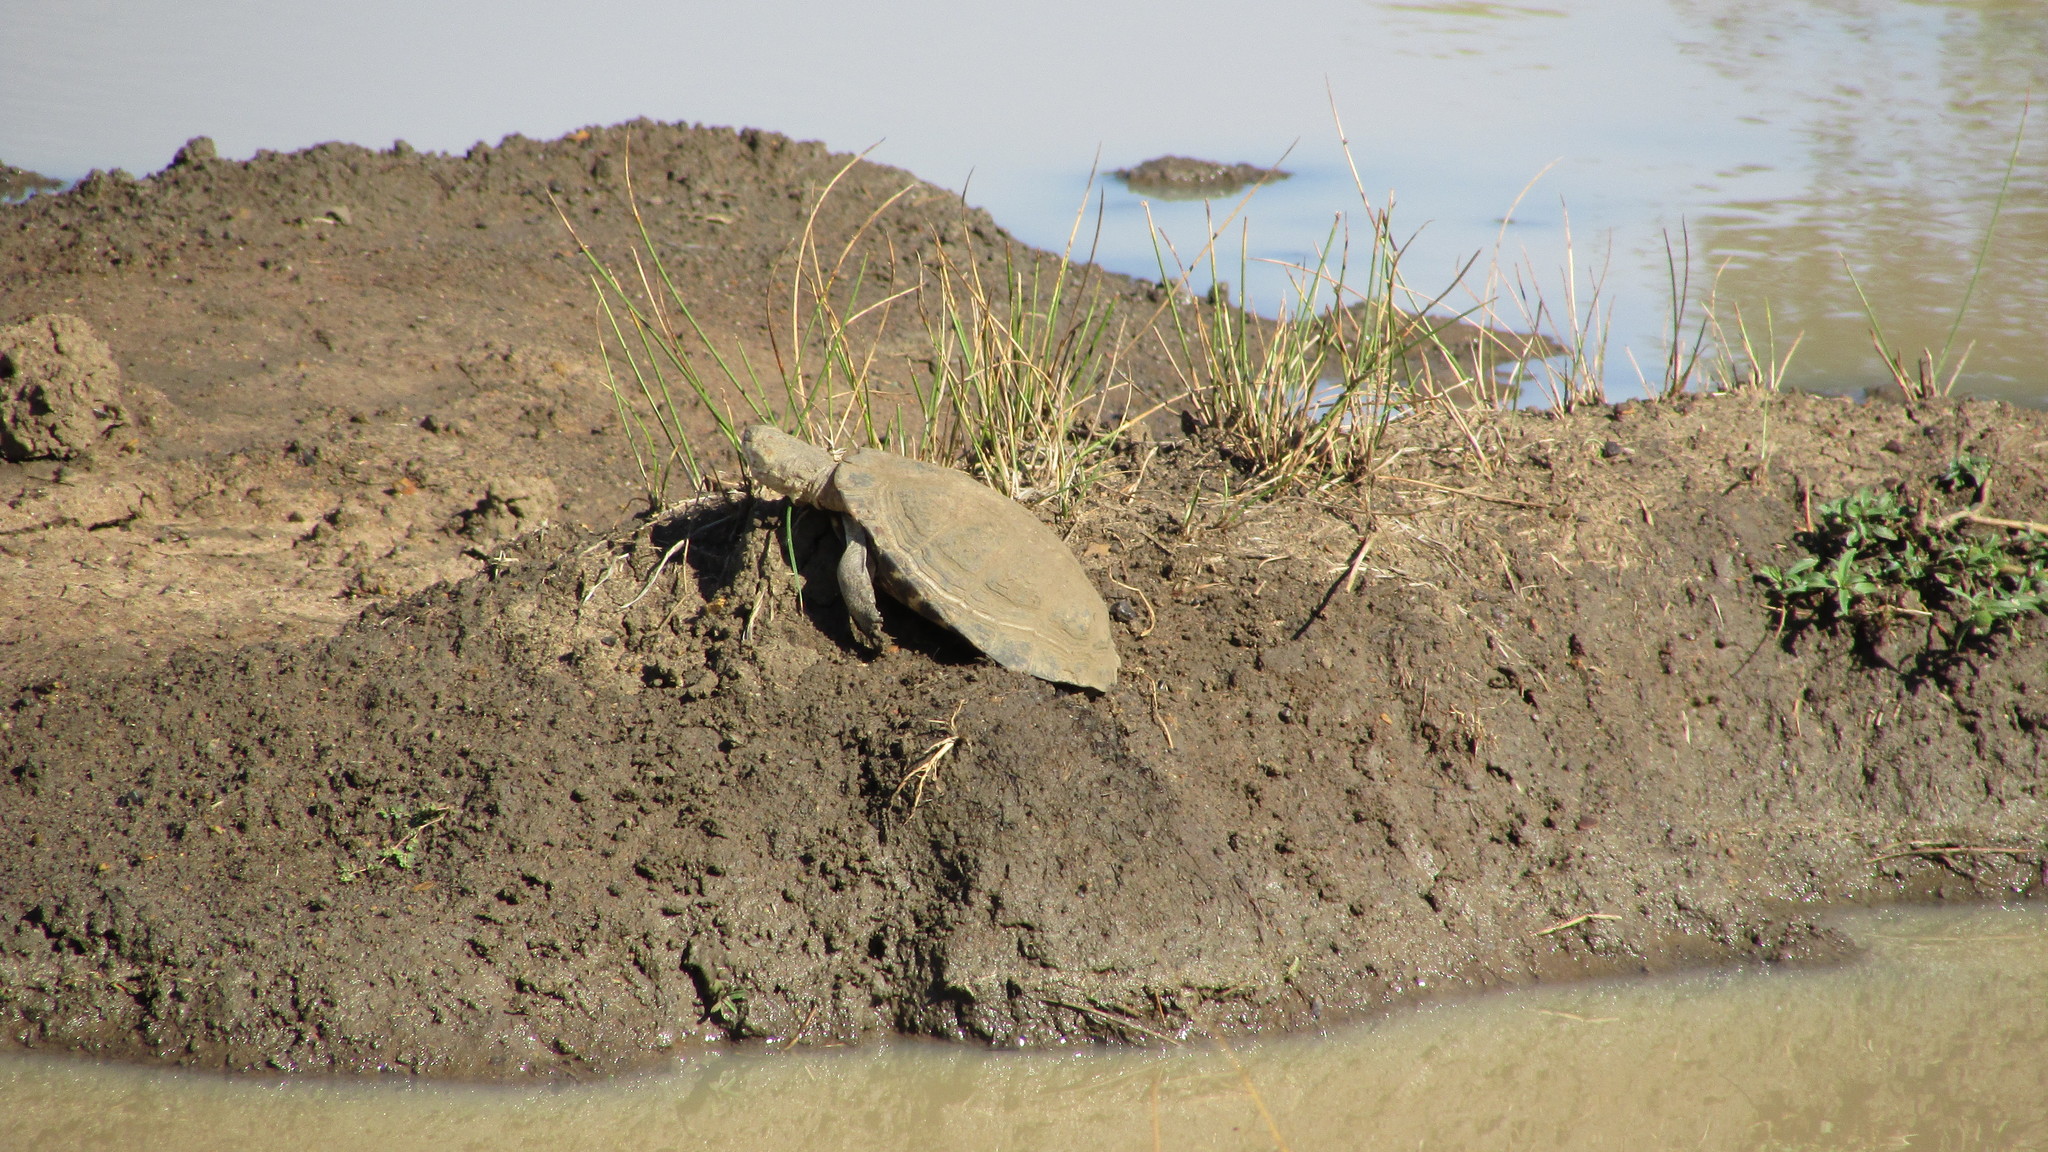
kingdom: Animalia
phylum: Chordata
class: Testudines
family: Pelomedusidae
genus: Pelomedusa
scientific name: Pelomedusa galeata
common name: South african helmeted terrapin
